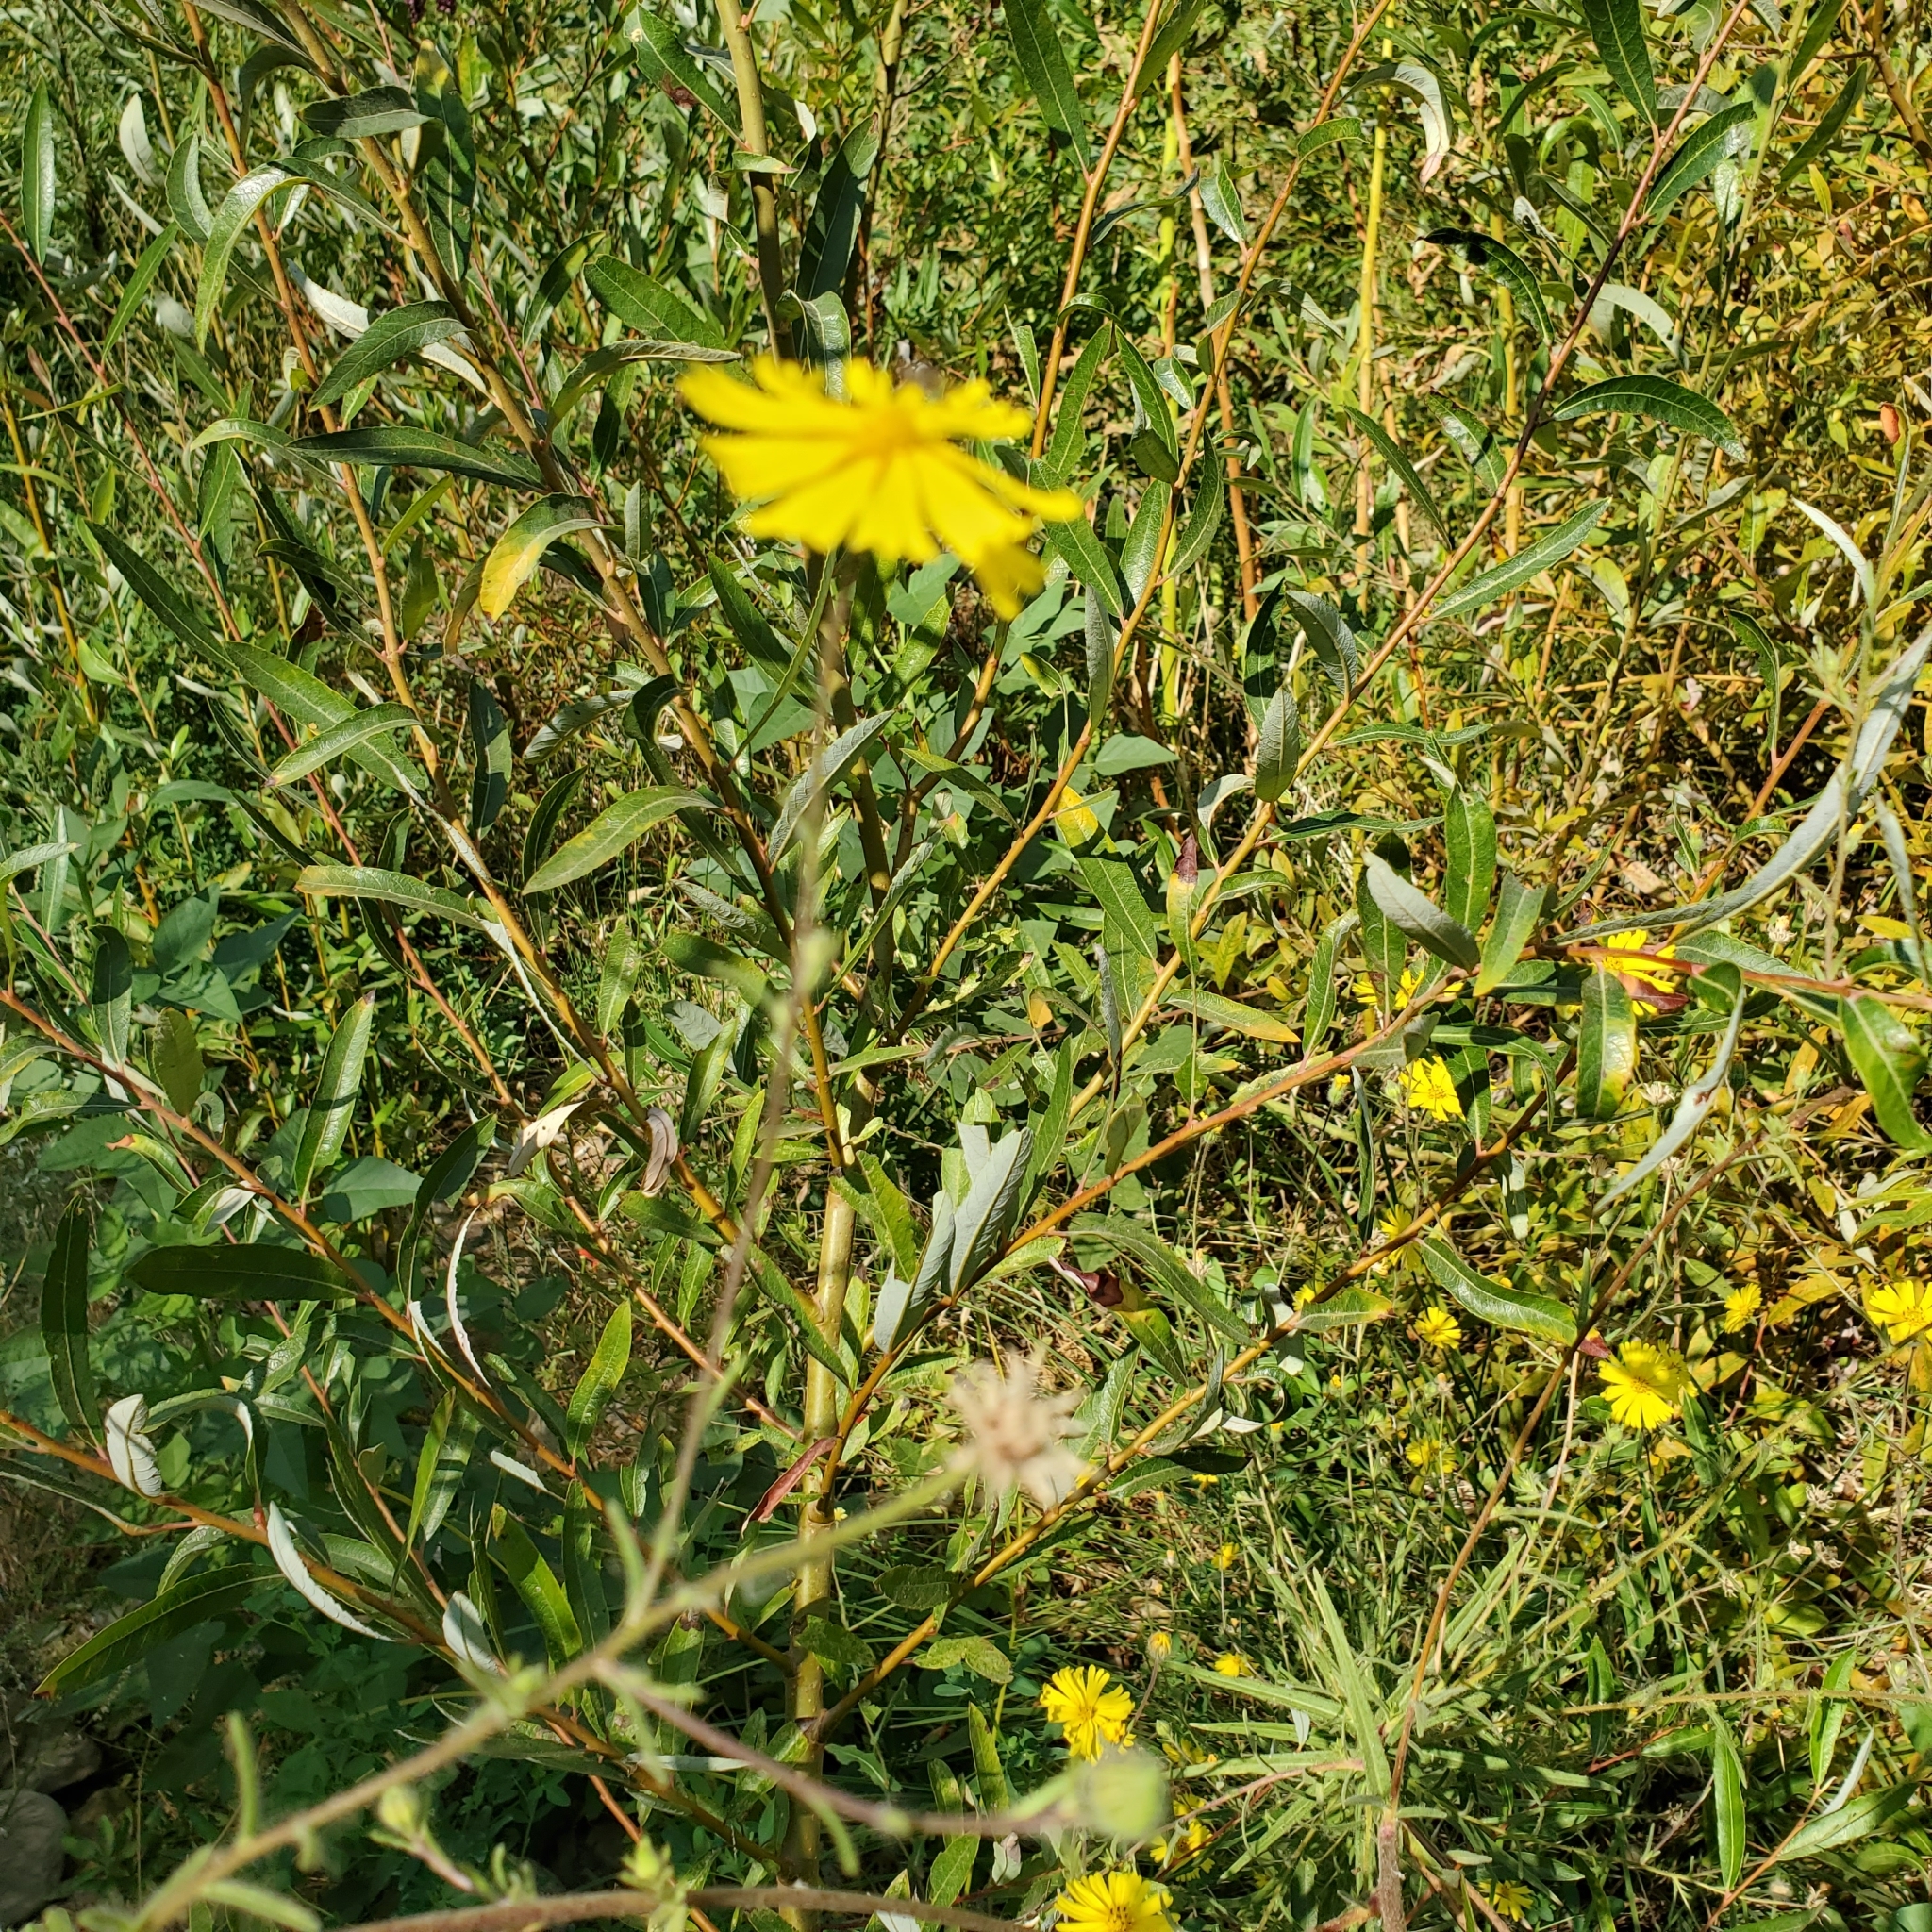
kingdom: Plantae
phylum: Tracheophyta
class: Magnoliopsida
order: Asterales
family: Asteraceae
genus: Madia
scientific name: Madia elegans
